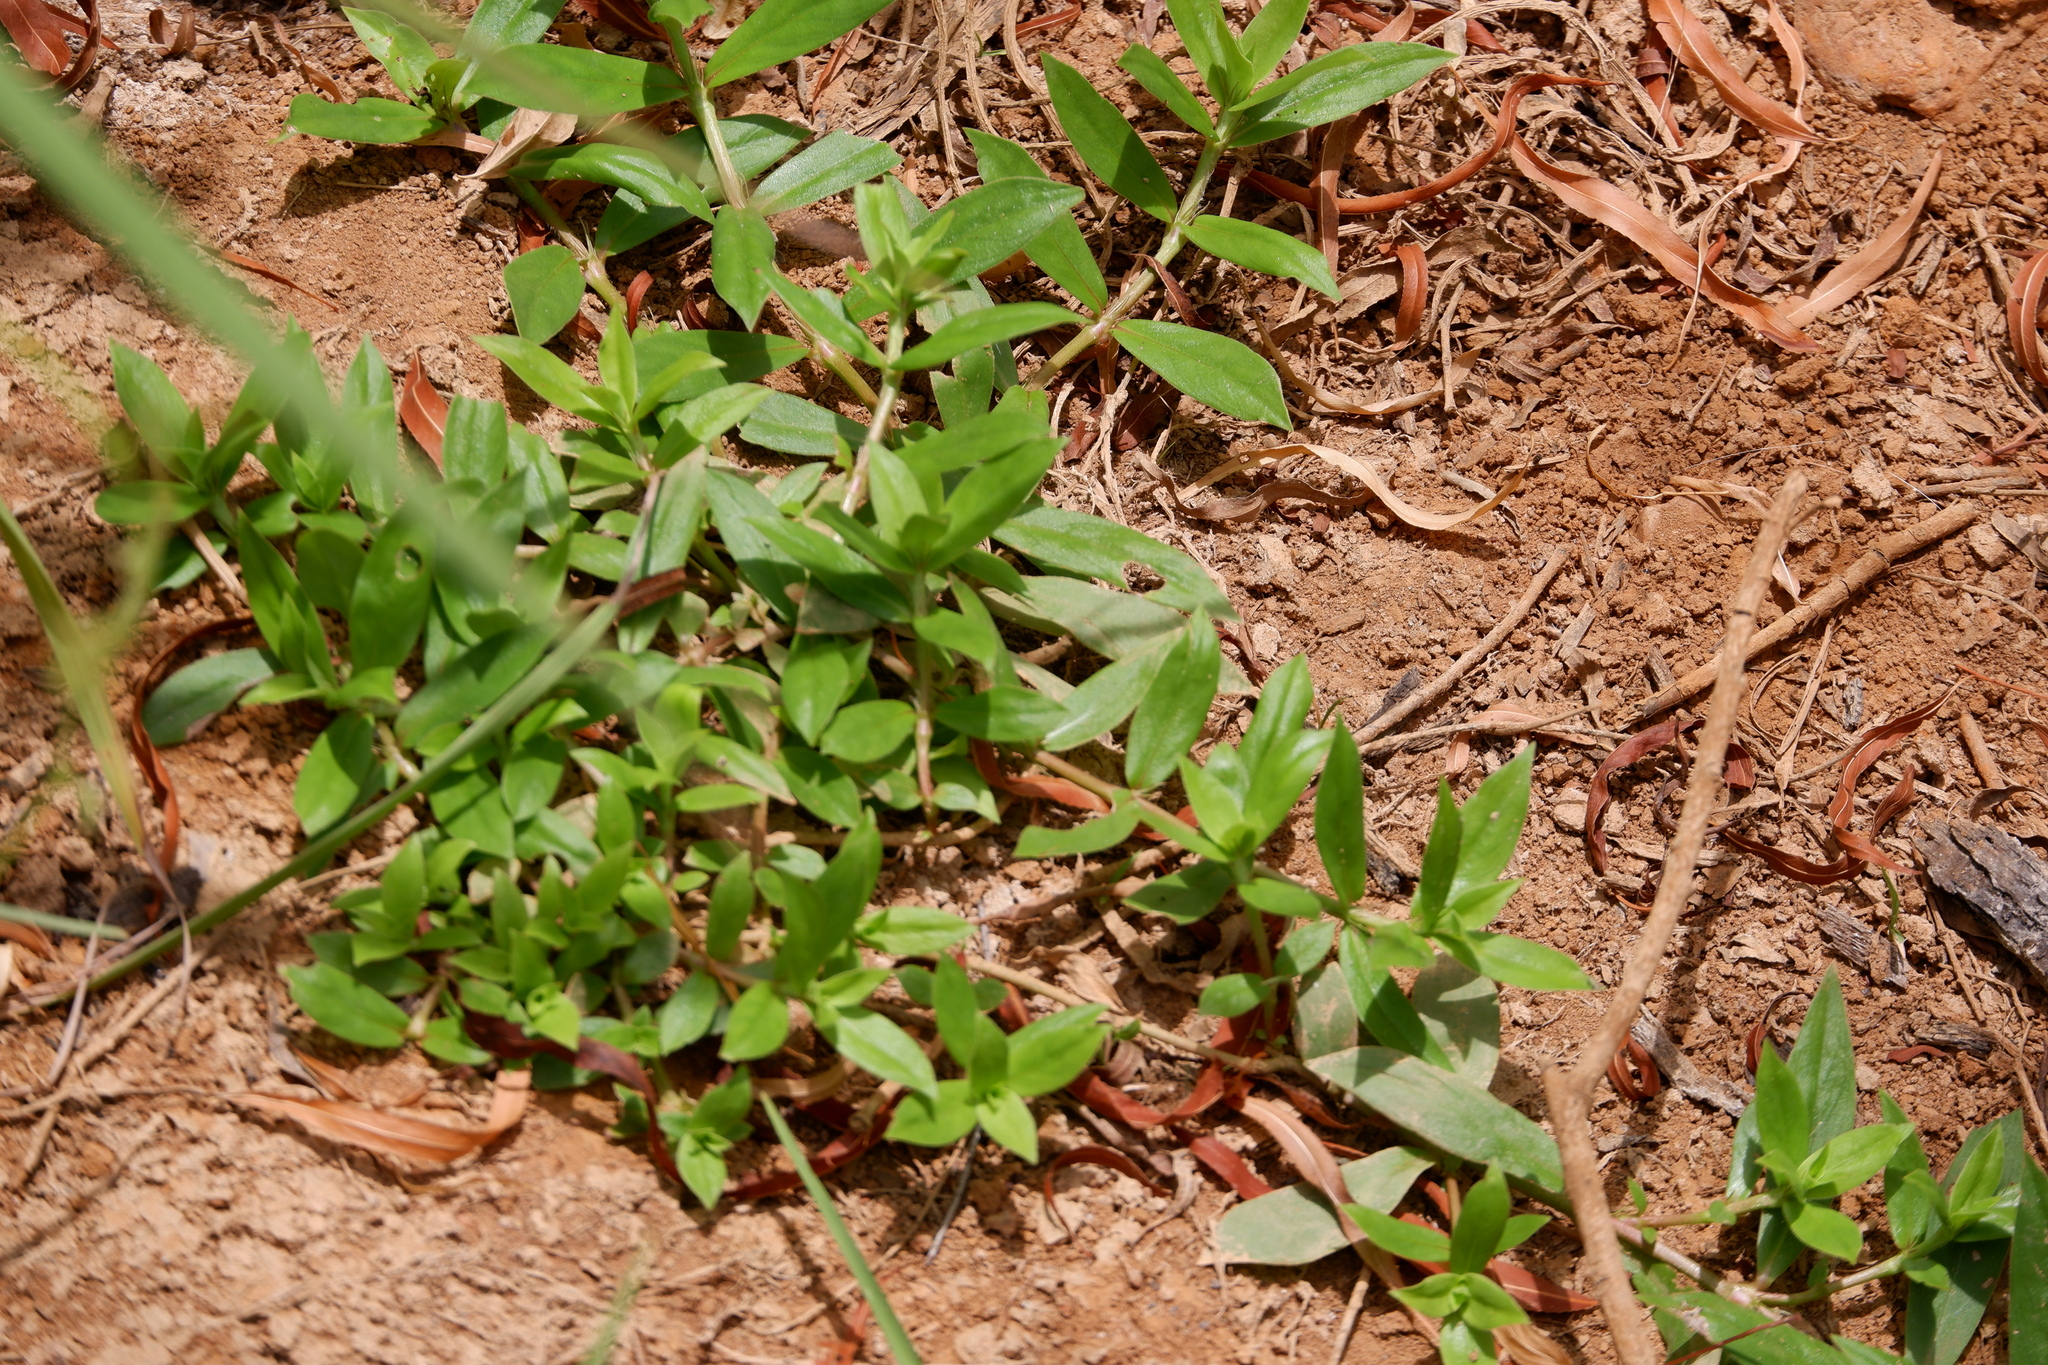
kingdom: Plantae
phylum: Tracheophyta
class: Magnoliopsida
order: Gentianales
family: Rubiaceae
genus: Diodia
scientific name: Diodia virginiana
